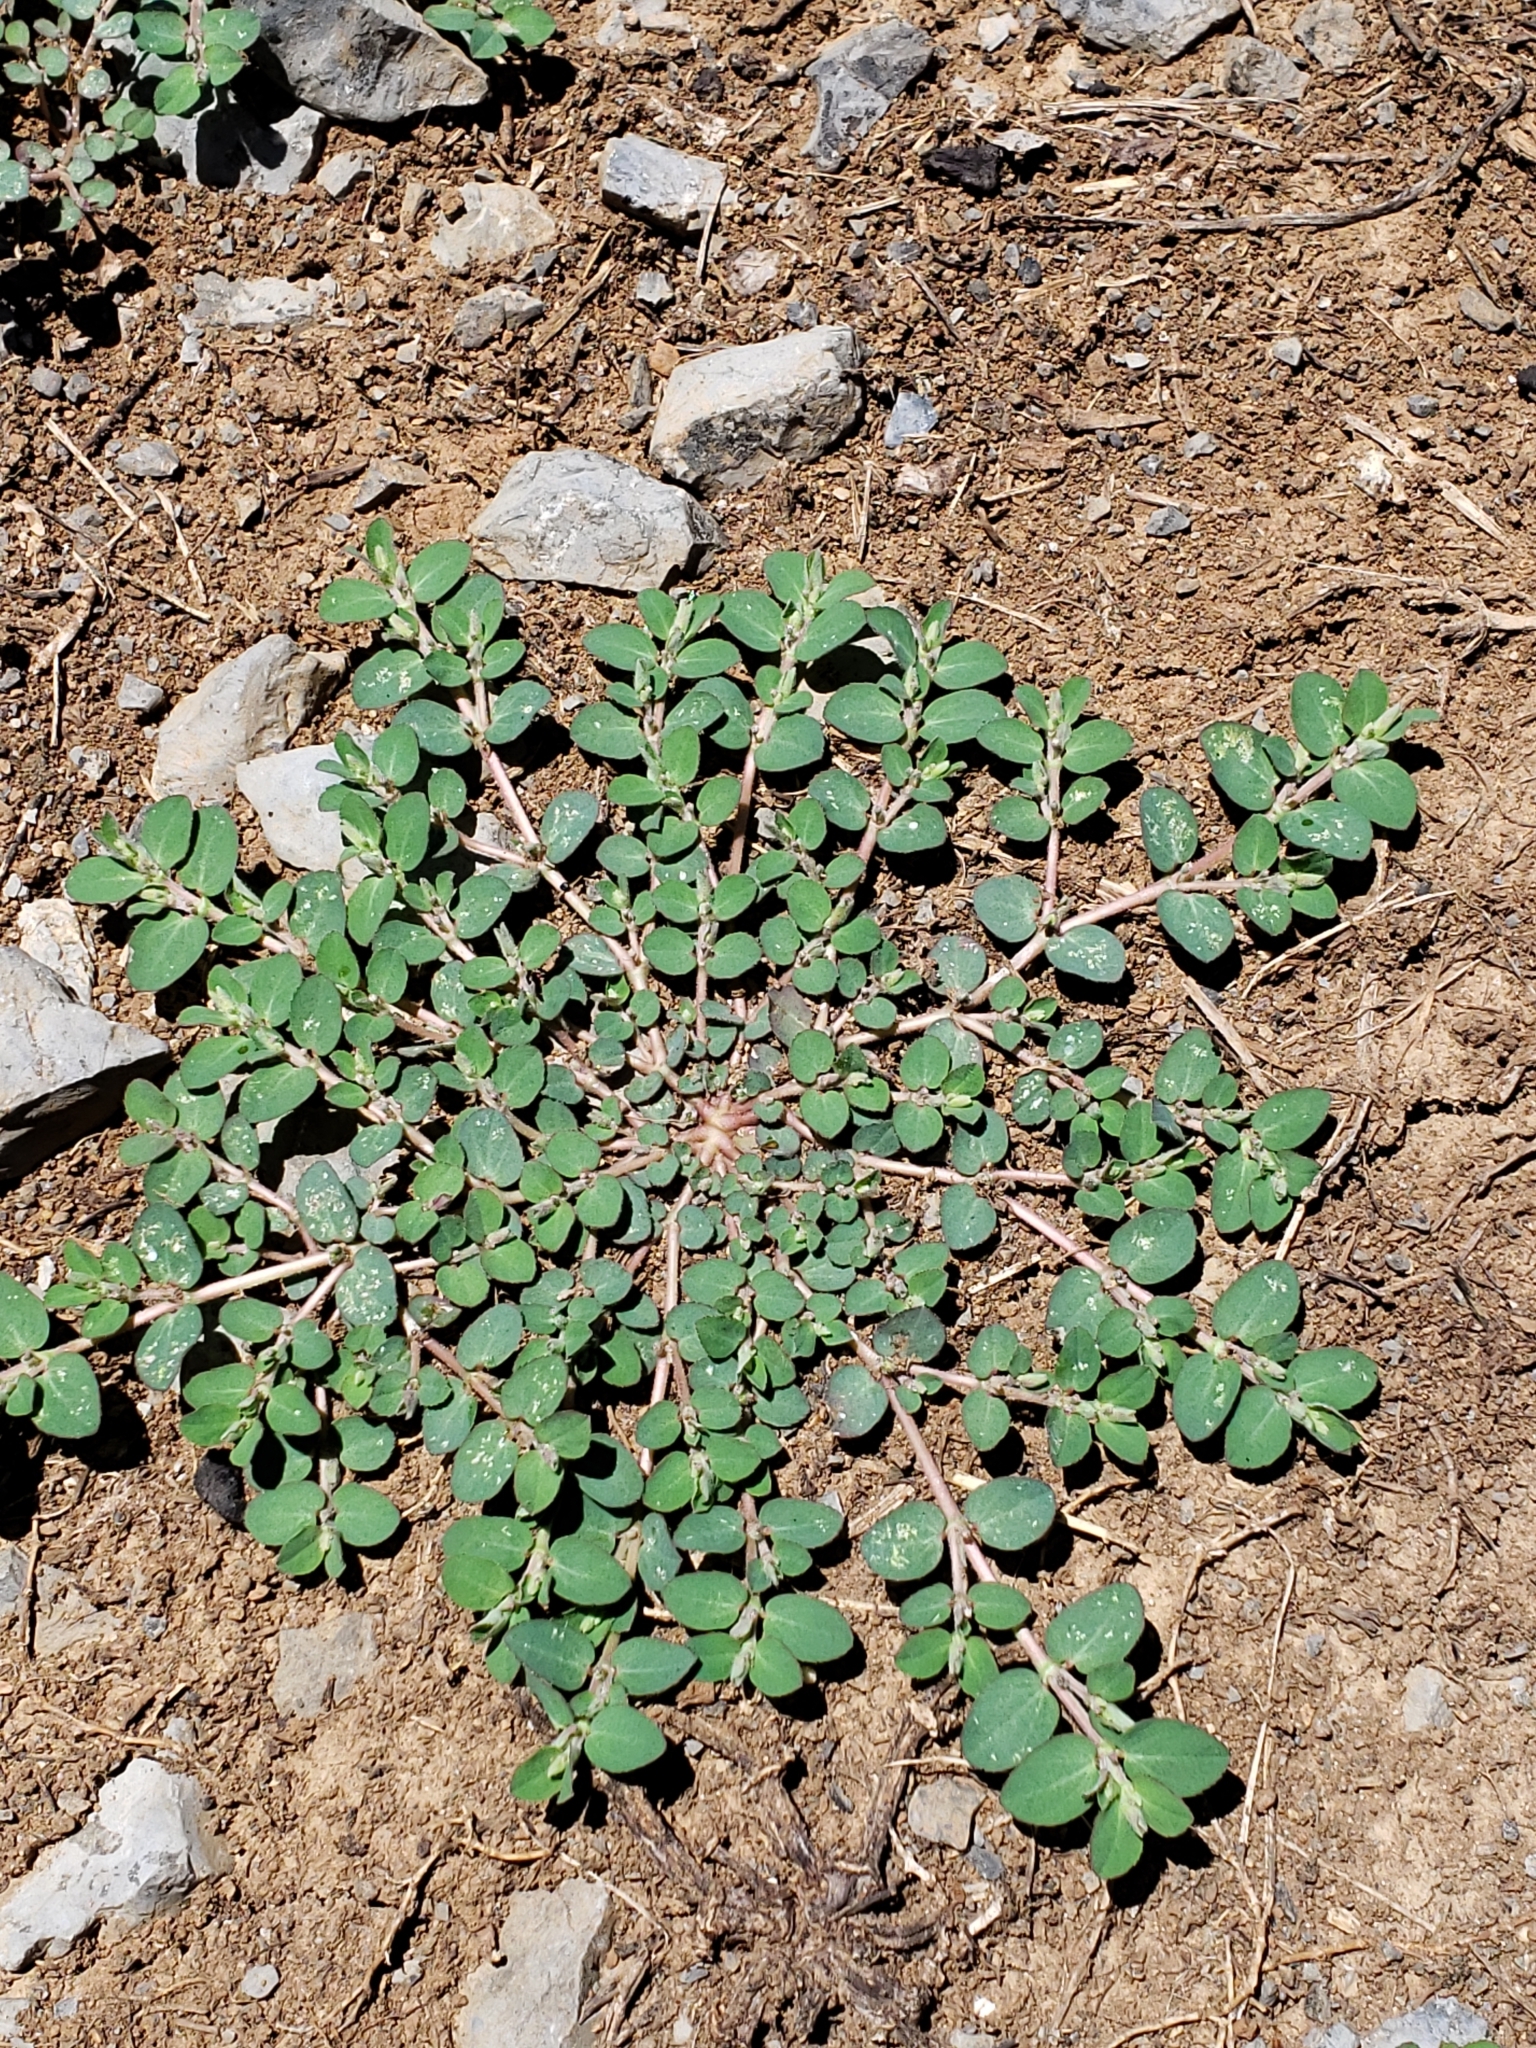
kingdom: Plantae
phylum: Tracheophyta
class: Magnoliopsida
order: Malpighiales
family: Euphorbiaceae
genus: Euphorbia
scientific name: Euphorbia prostrata
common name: Prostrate sandmat
